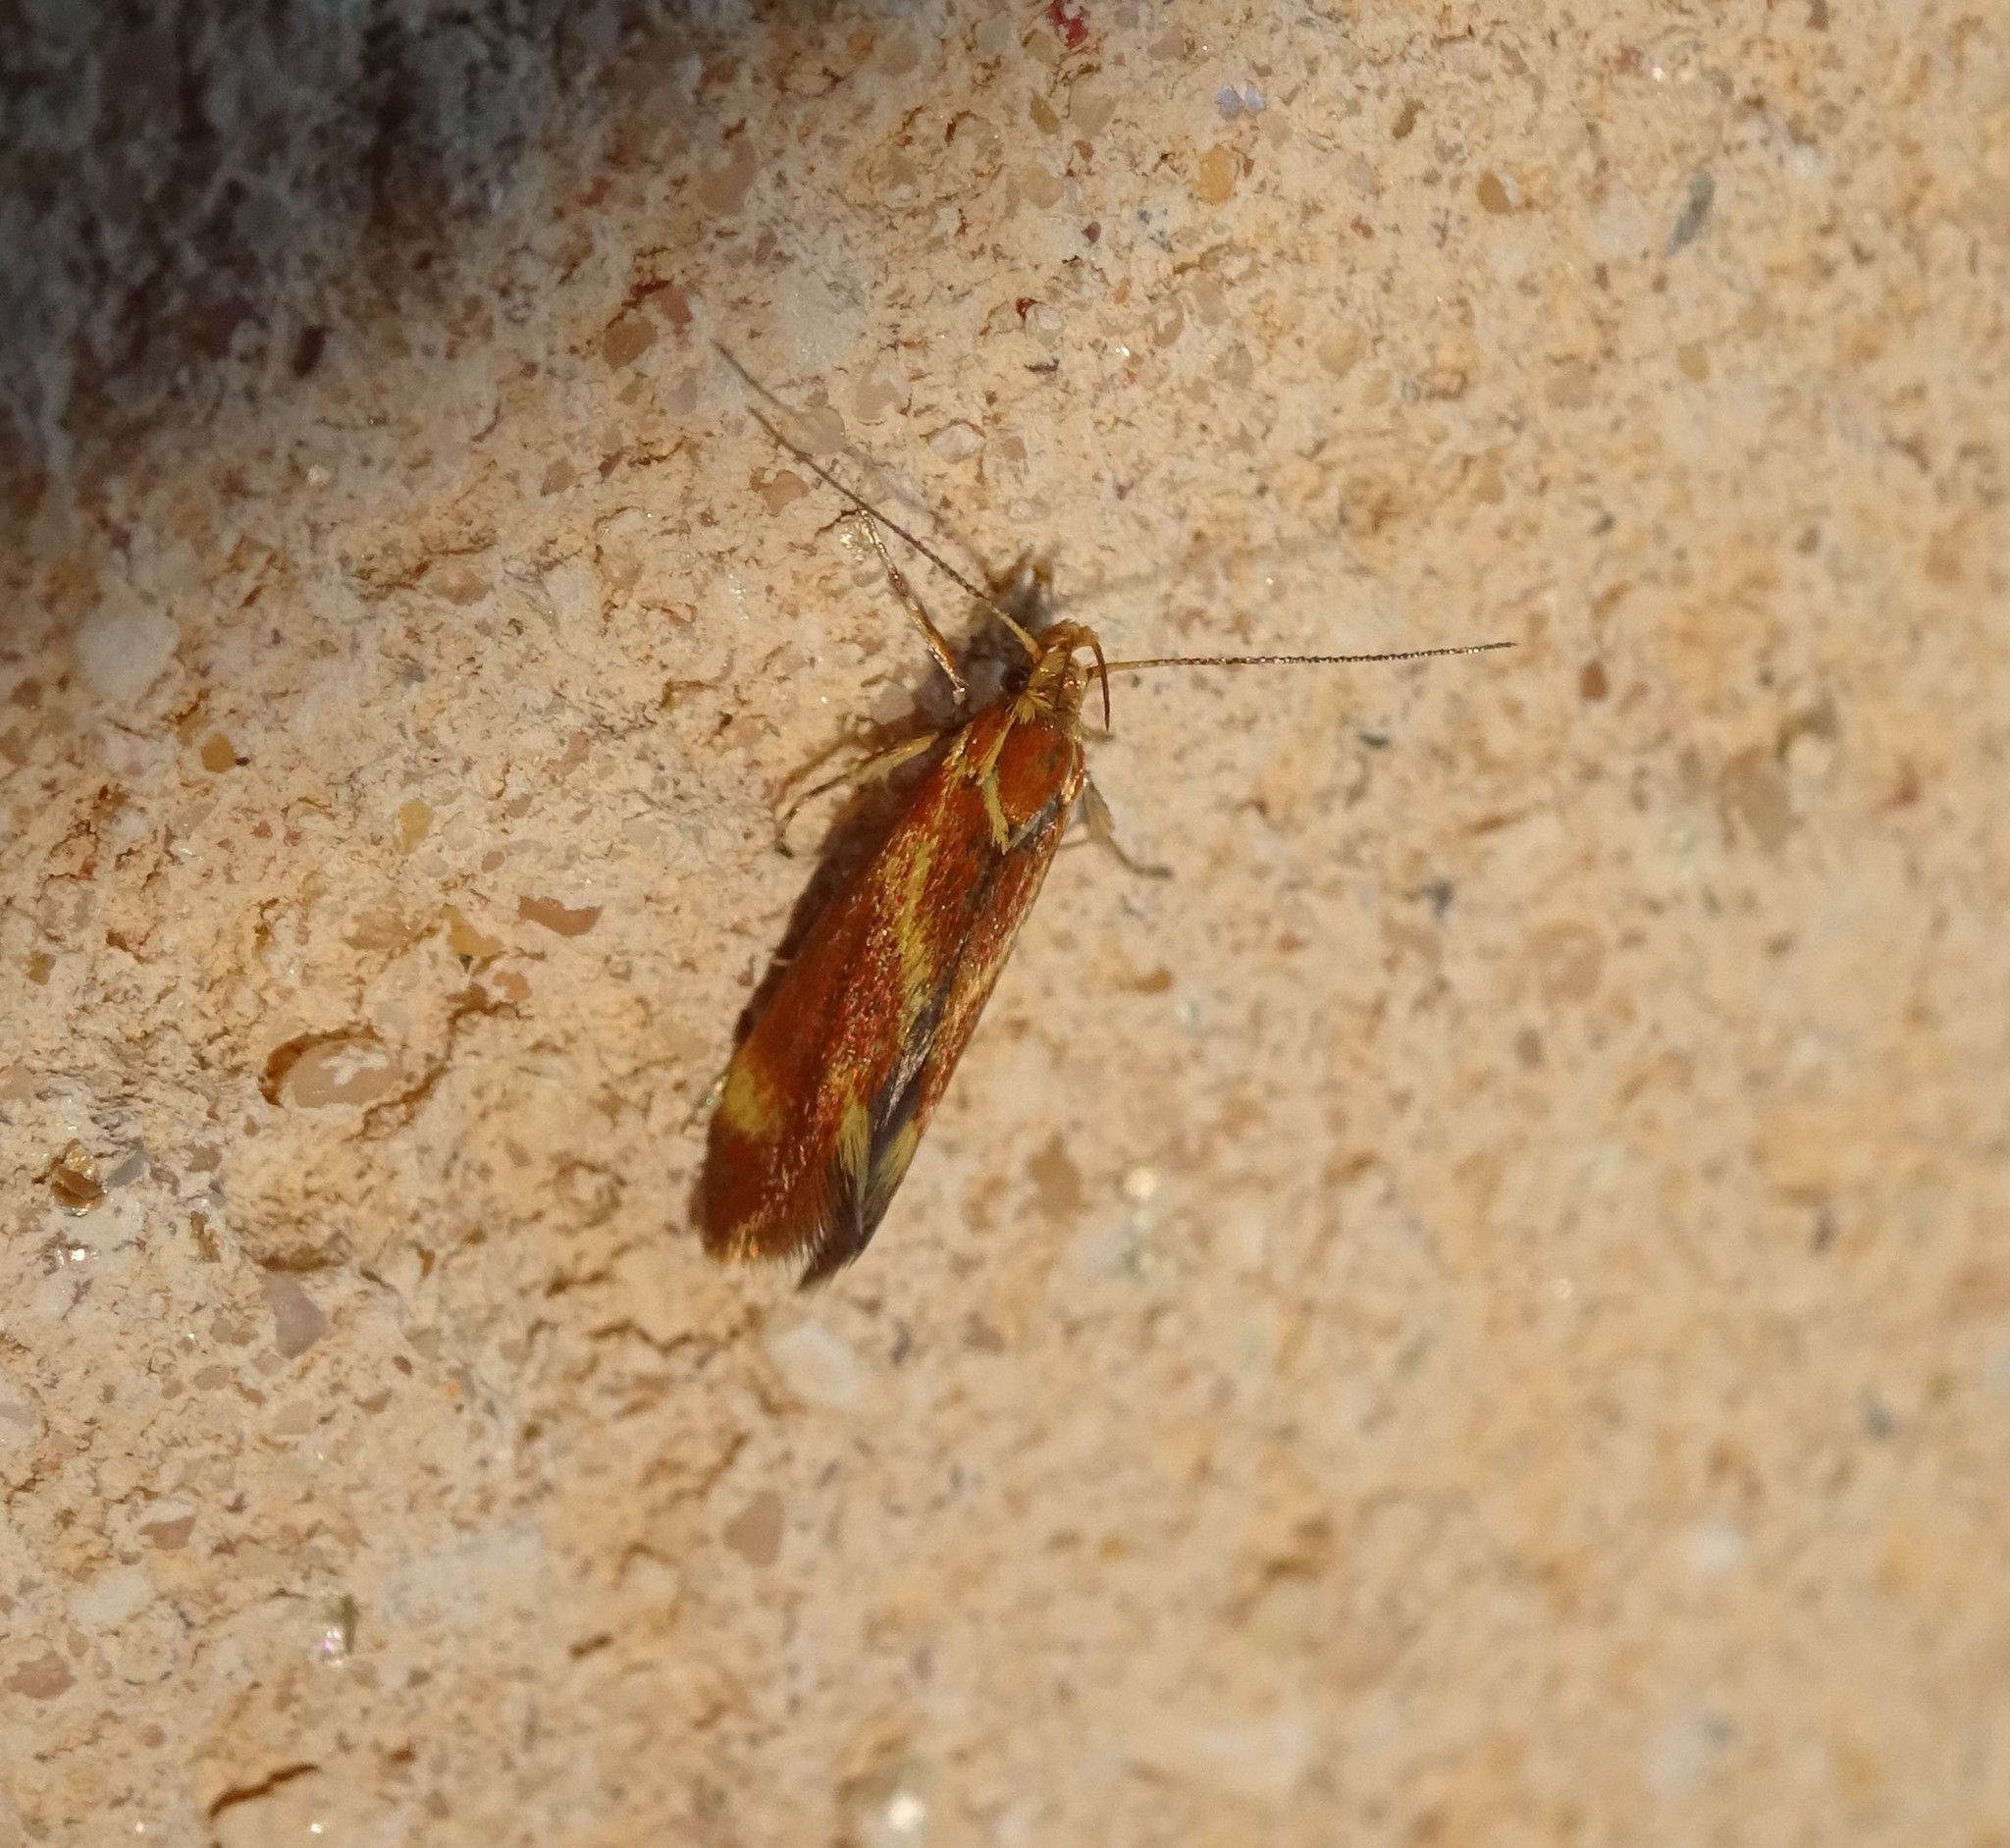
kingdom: Animalia
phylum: Arthropoda
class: Insecta
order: Lepidoptera
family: Oecophoridae
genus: Borkhausenia
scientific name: Borkhausenia italica
